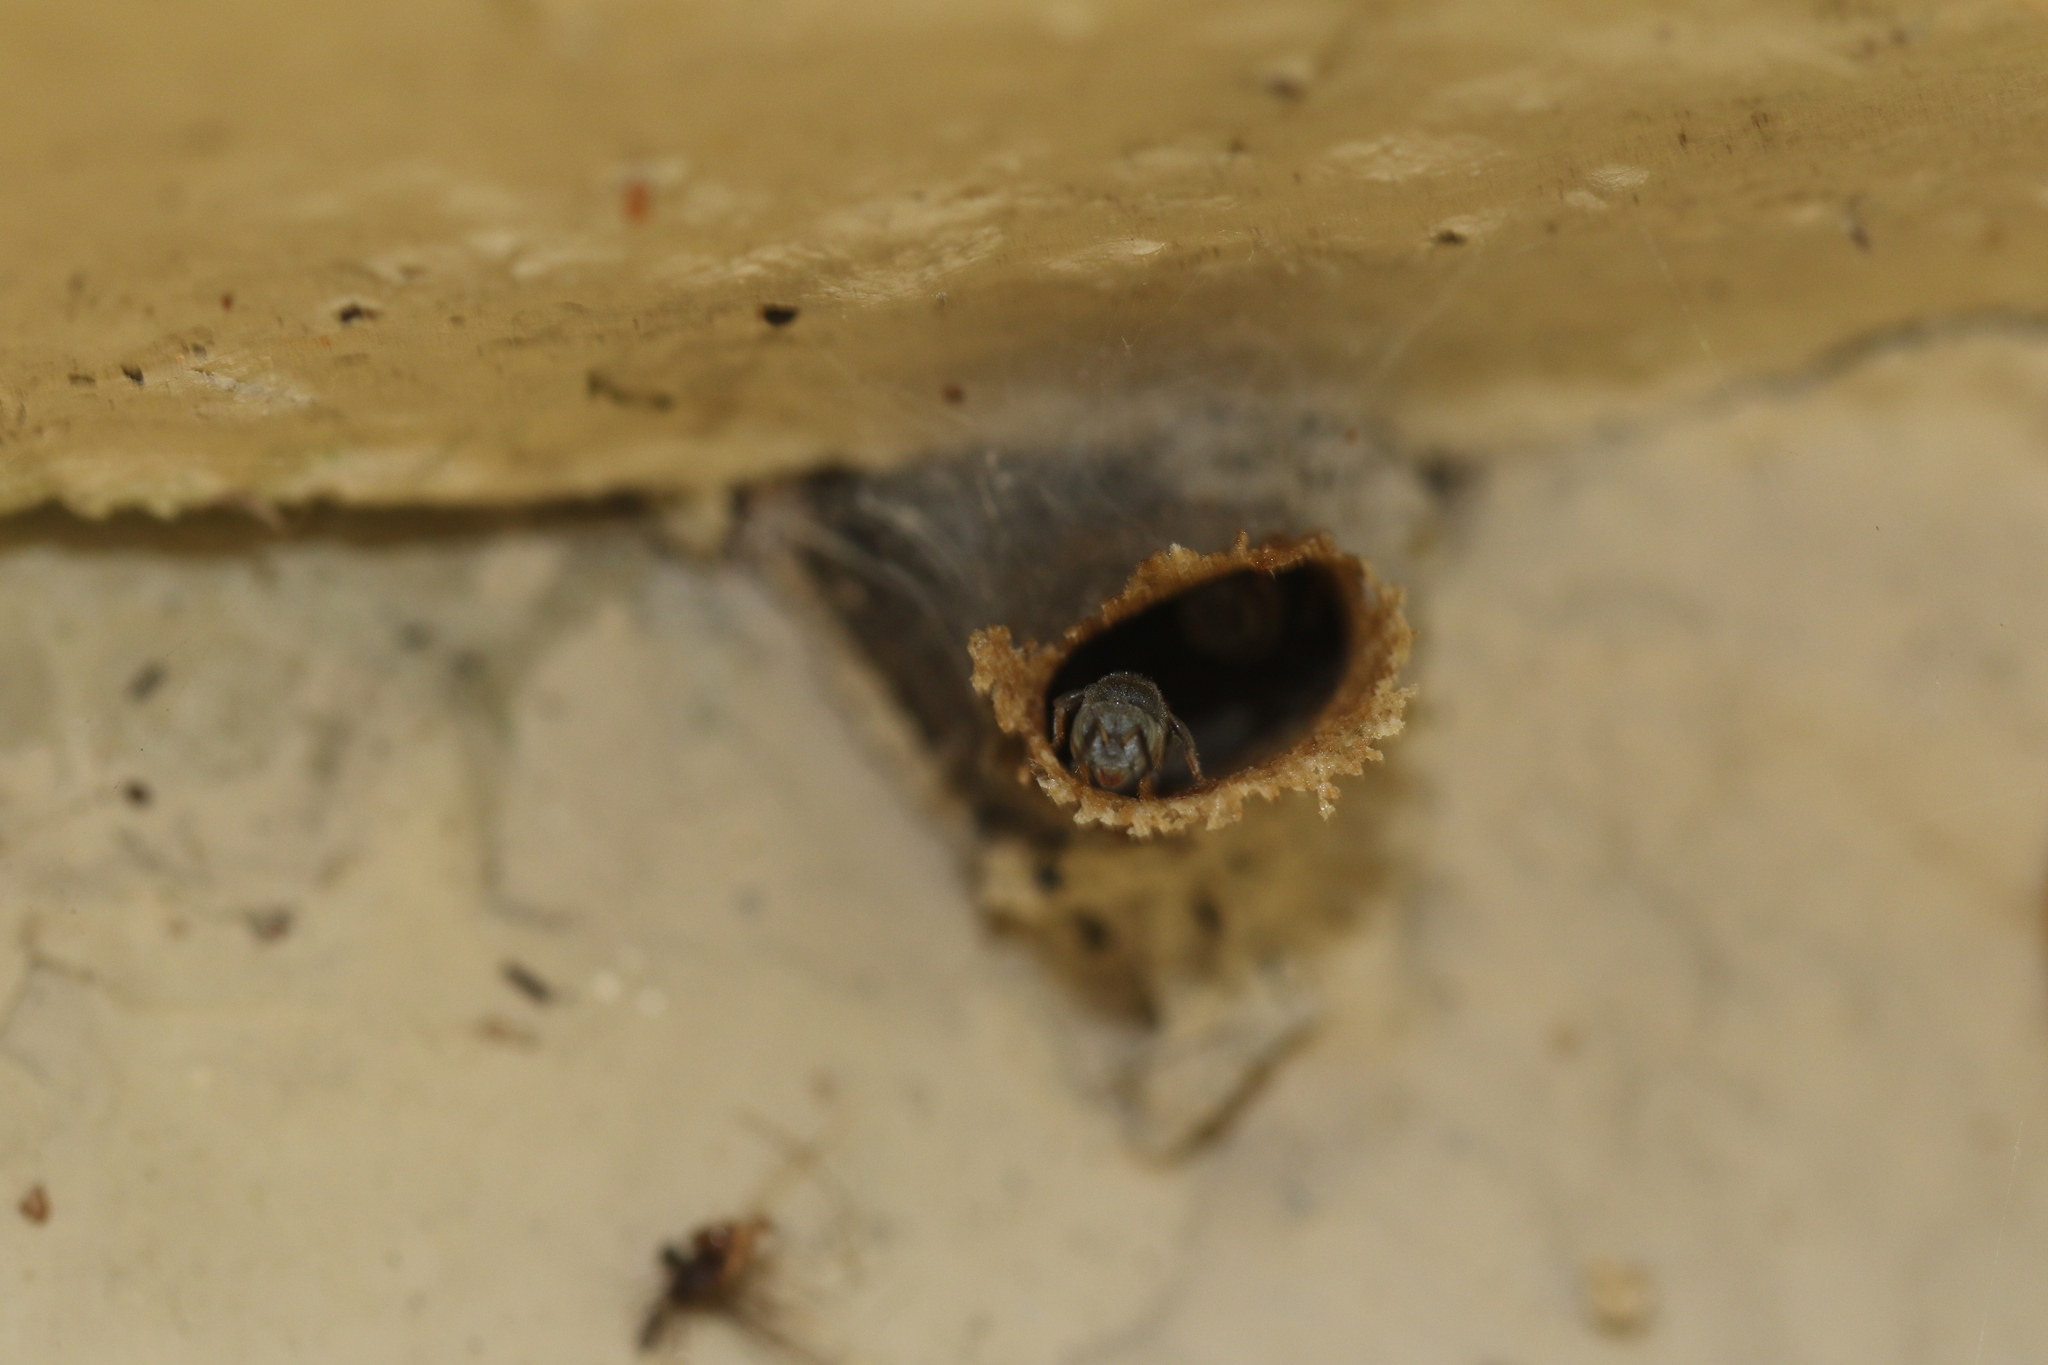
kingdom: Animalia
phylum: Arthropoda
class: Insecta
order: Hymenoptera
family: Apidae
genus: Friesella
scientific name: Friesella schrottkyi
